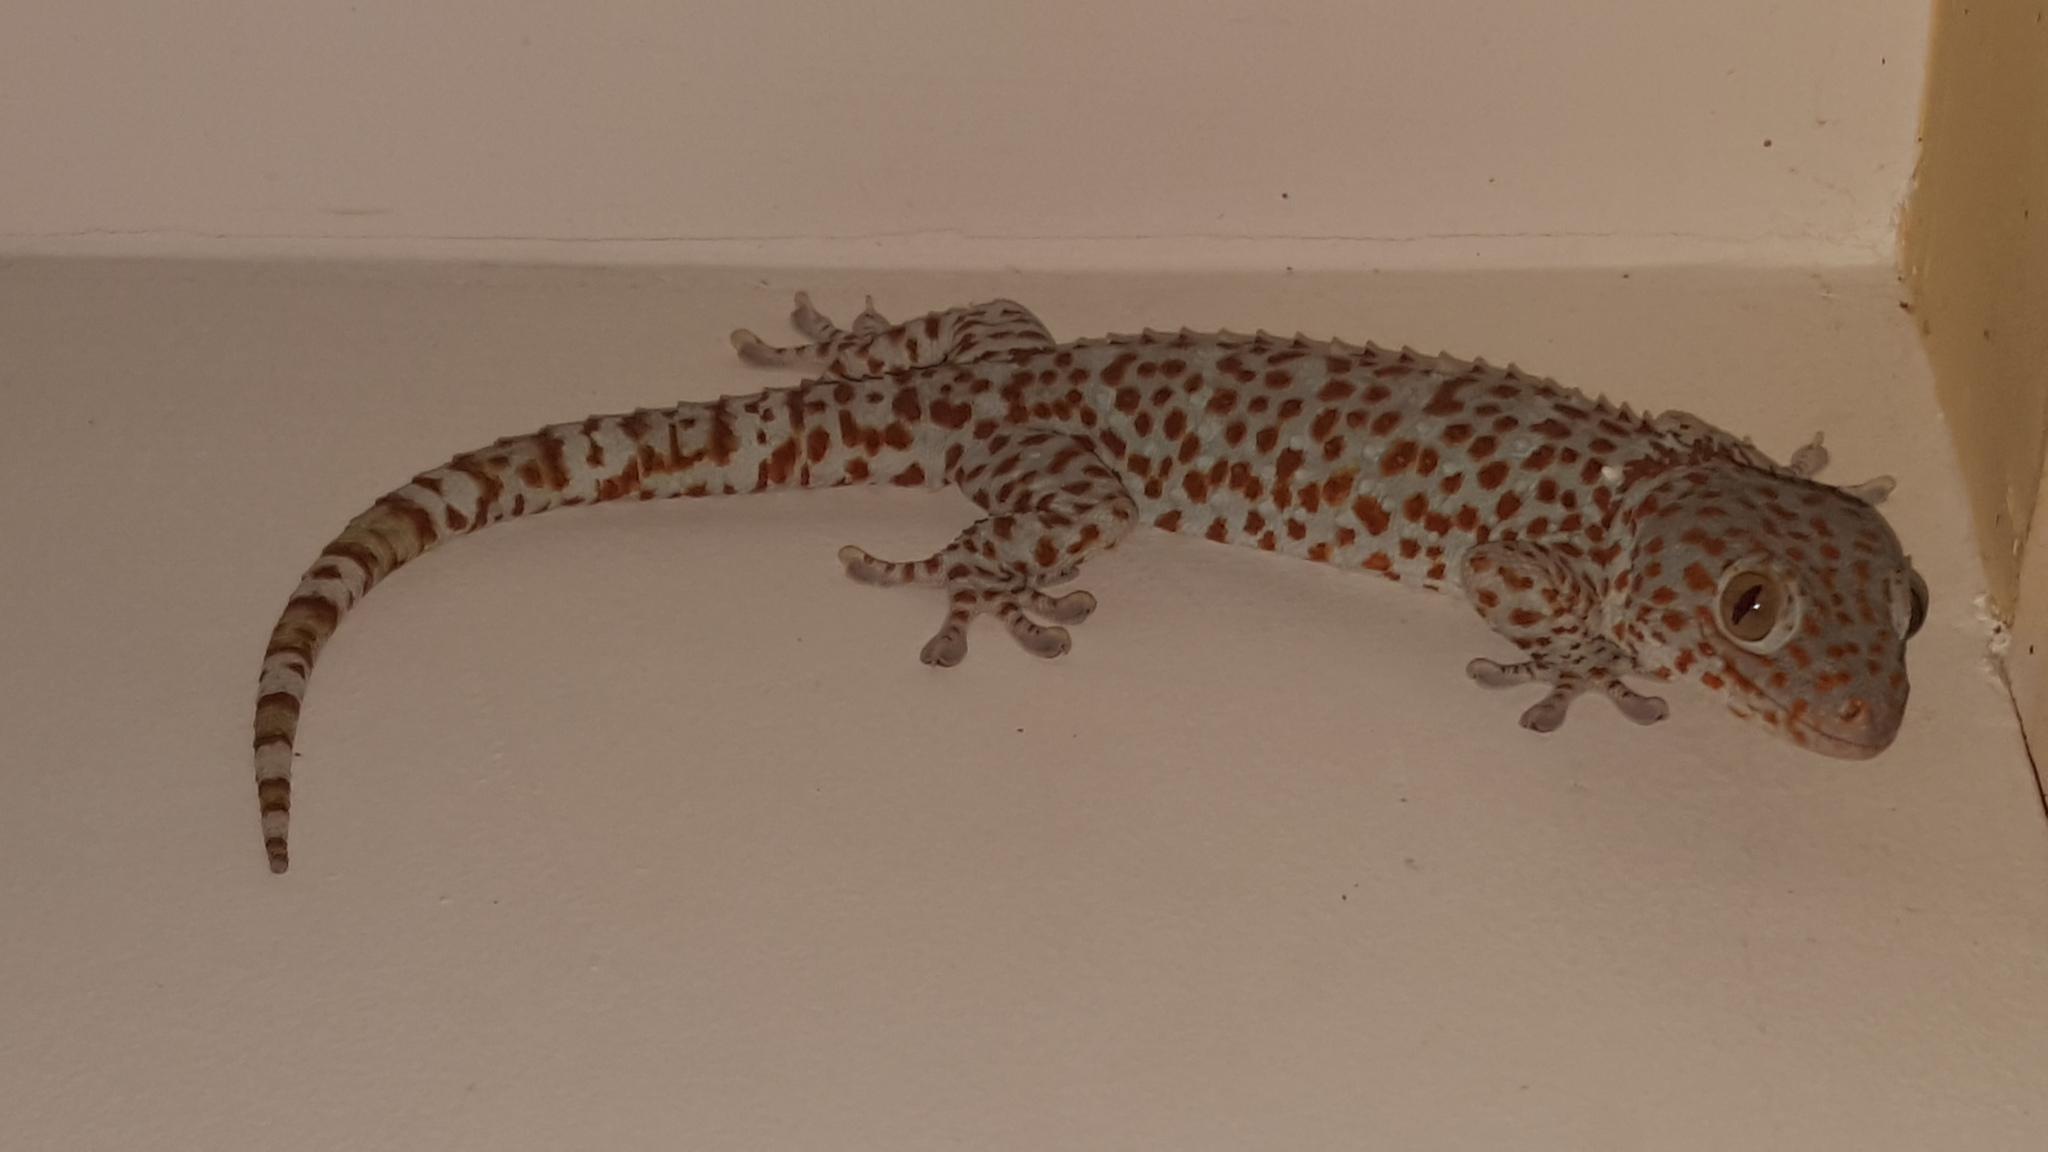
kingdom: Animalia
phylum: Chordata
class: Squamata
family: Gekkonidae
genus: Gekko
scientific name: Gekko gecko
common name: Tokay gecko
